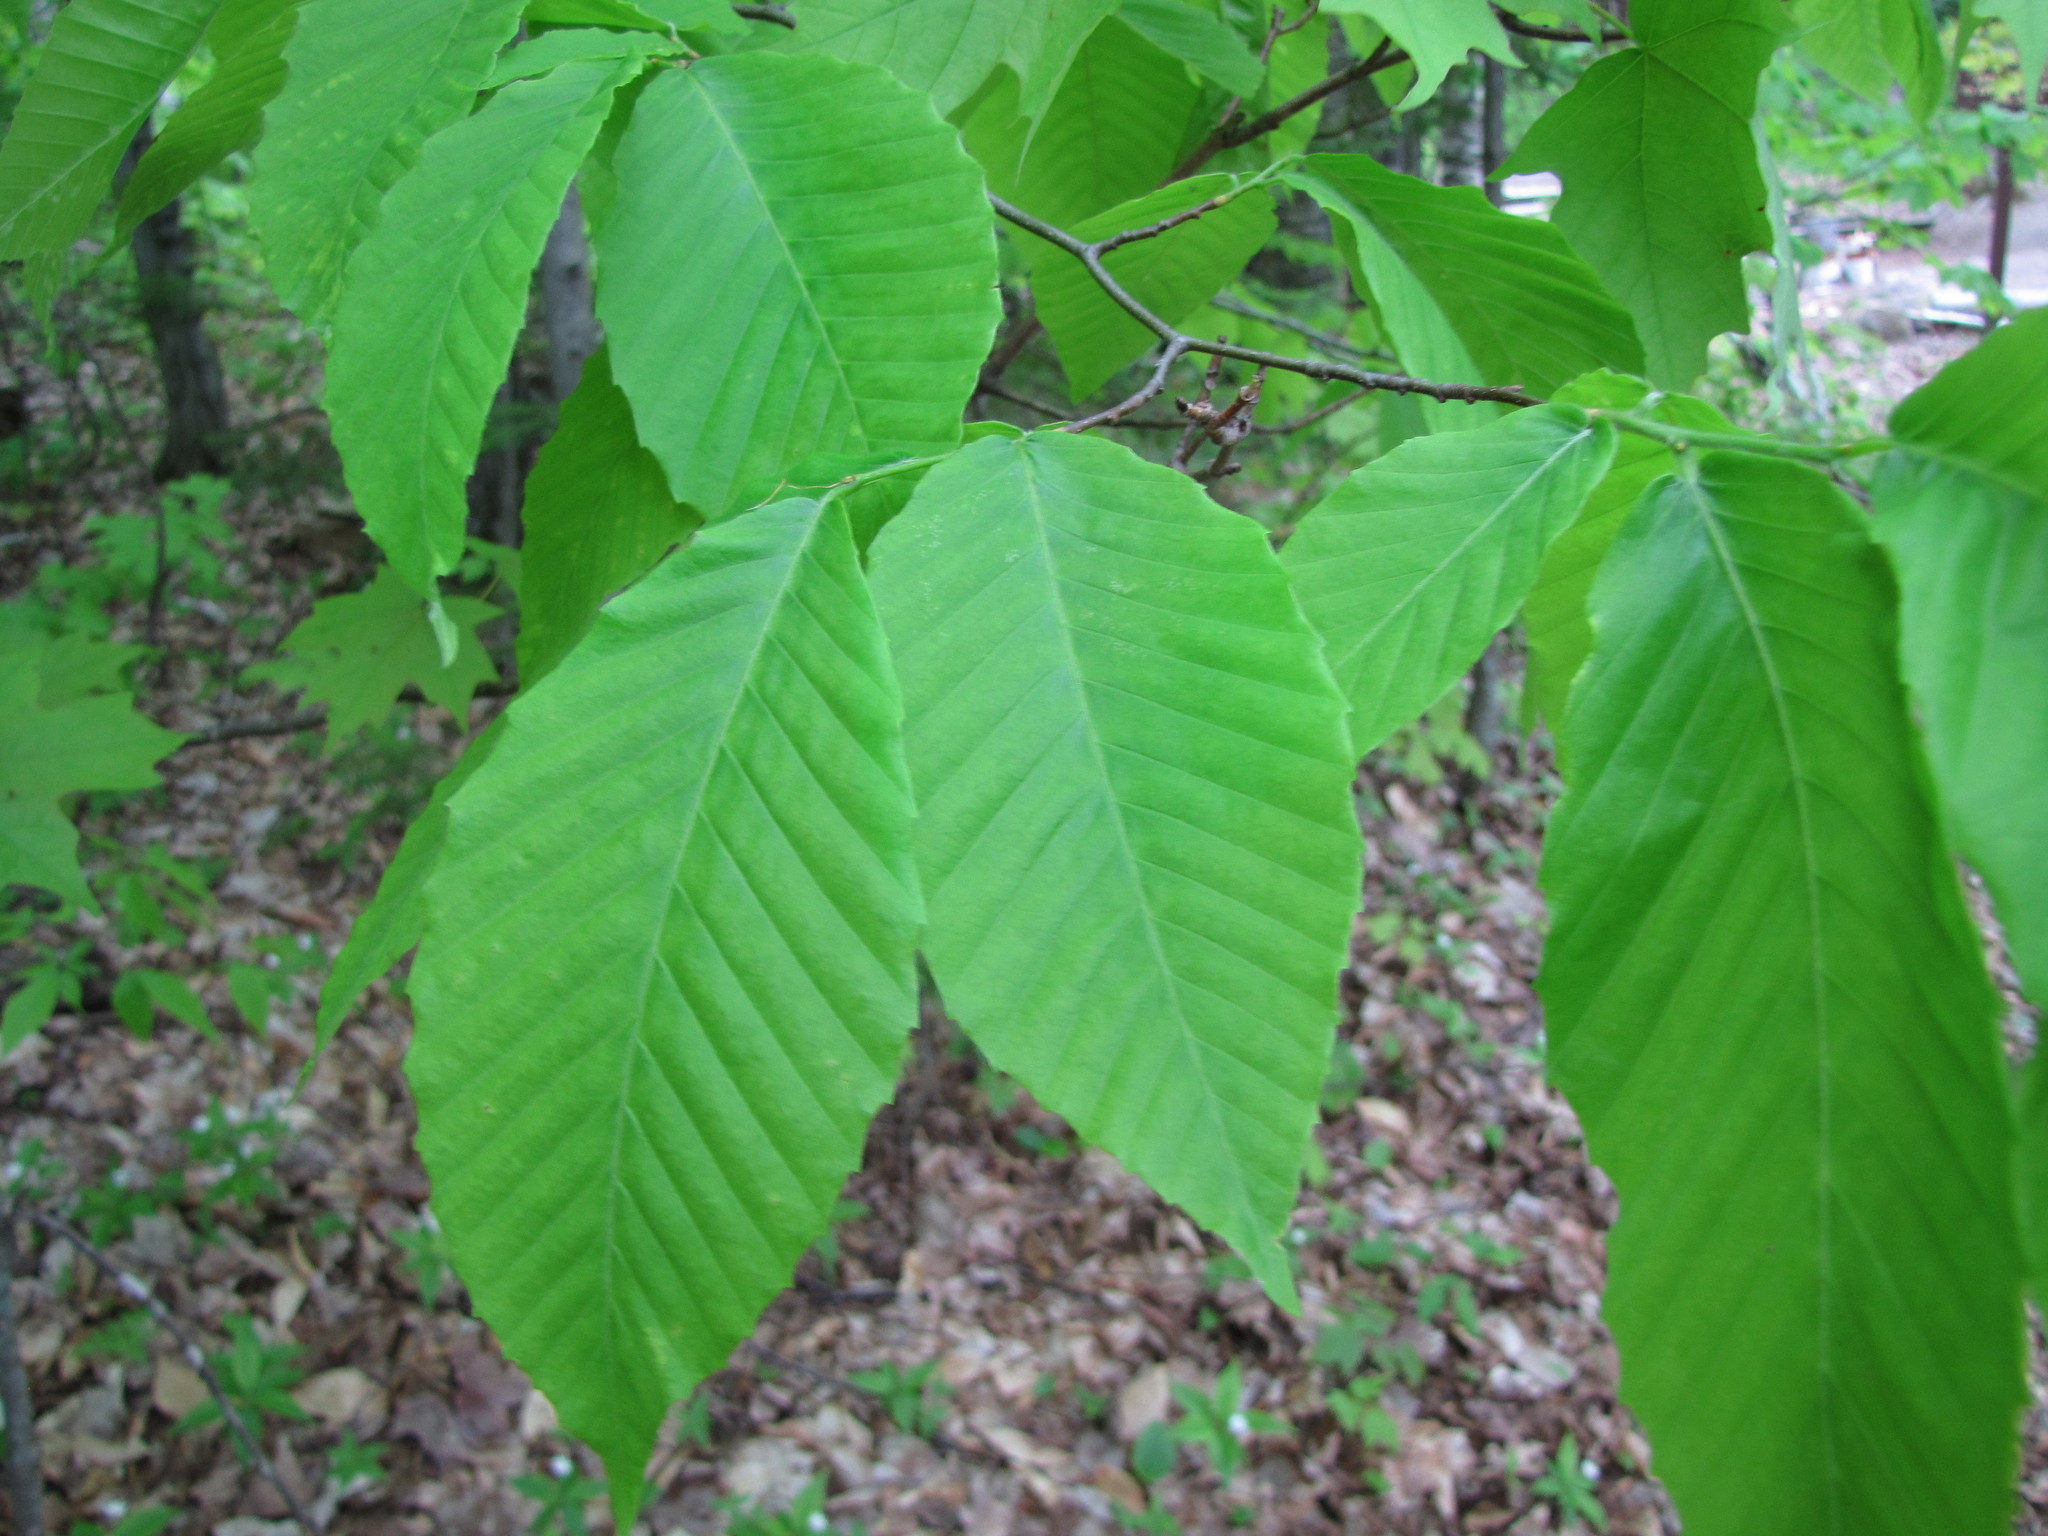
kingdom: Plantae
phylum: Tracheophyta
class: Magnoliopsida
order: Fagales
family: Fagaceae
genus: Fagus
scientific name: Fagus grandifolia
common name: American beech
